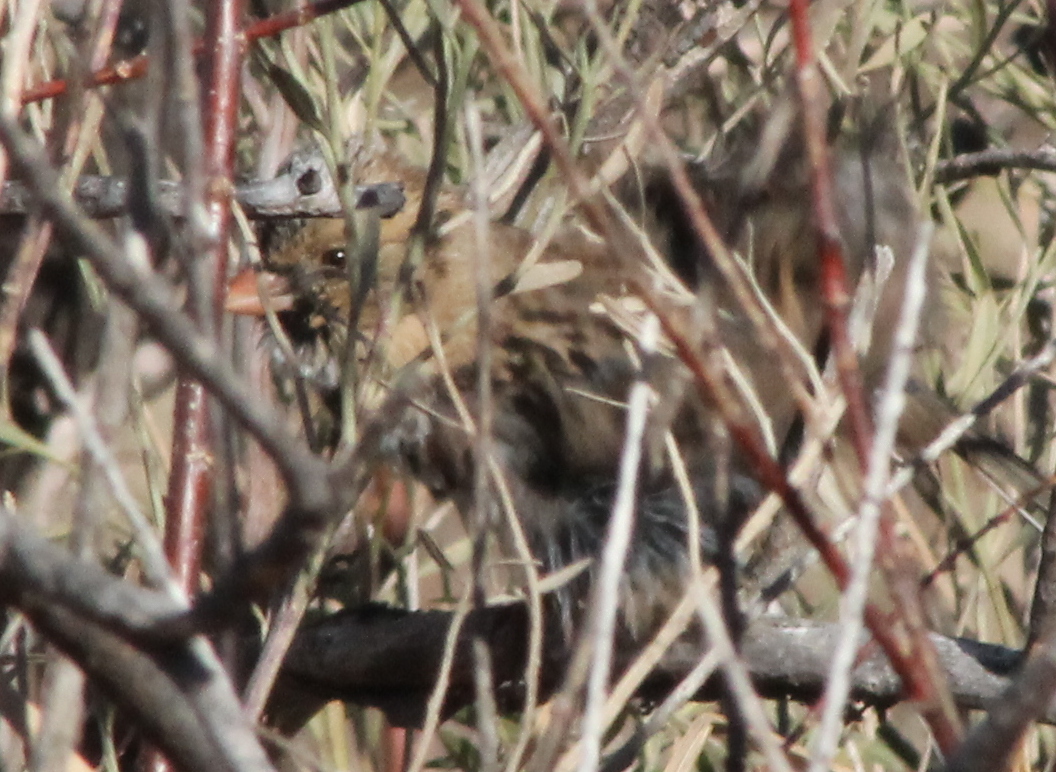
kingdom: Animalia
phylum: Chordata
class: Aves
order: Passeriformes
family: Passerellidae
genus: Zonotrichia
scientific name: Zonotrichia querula
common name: Harris's sparrow
